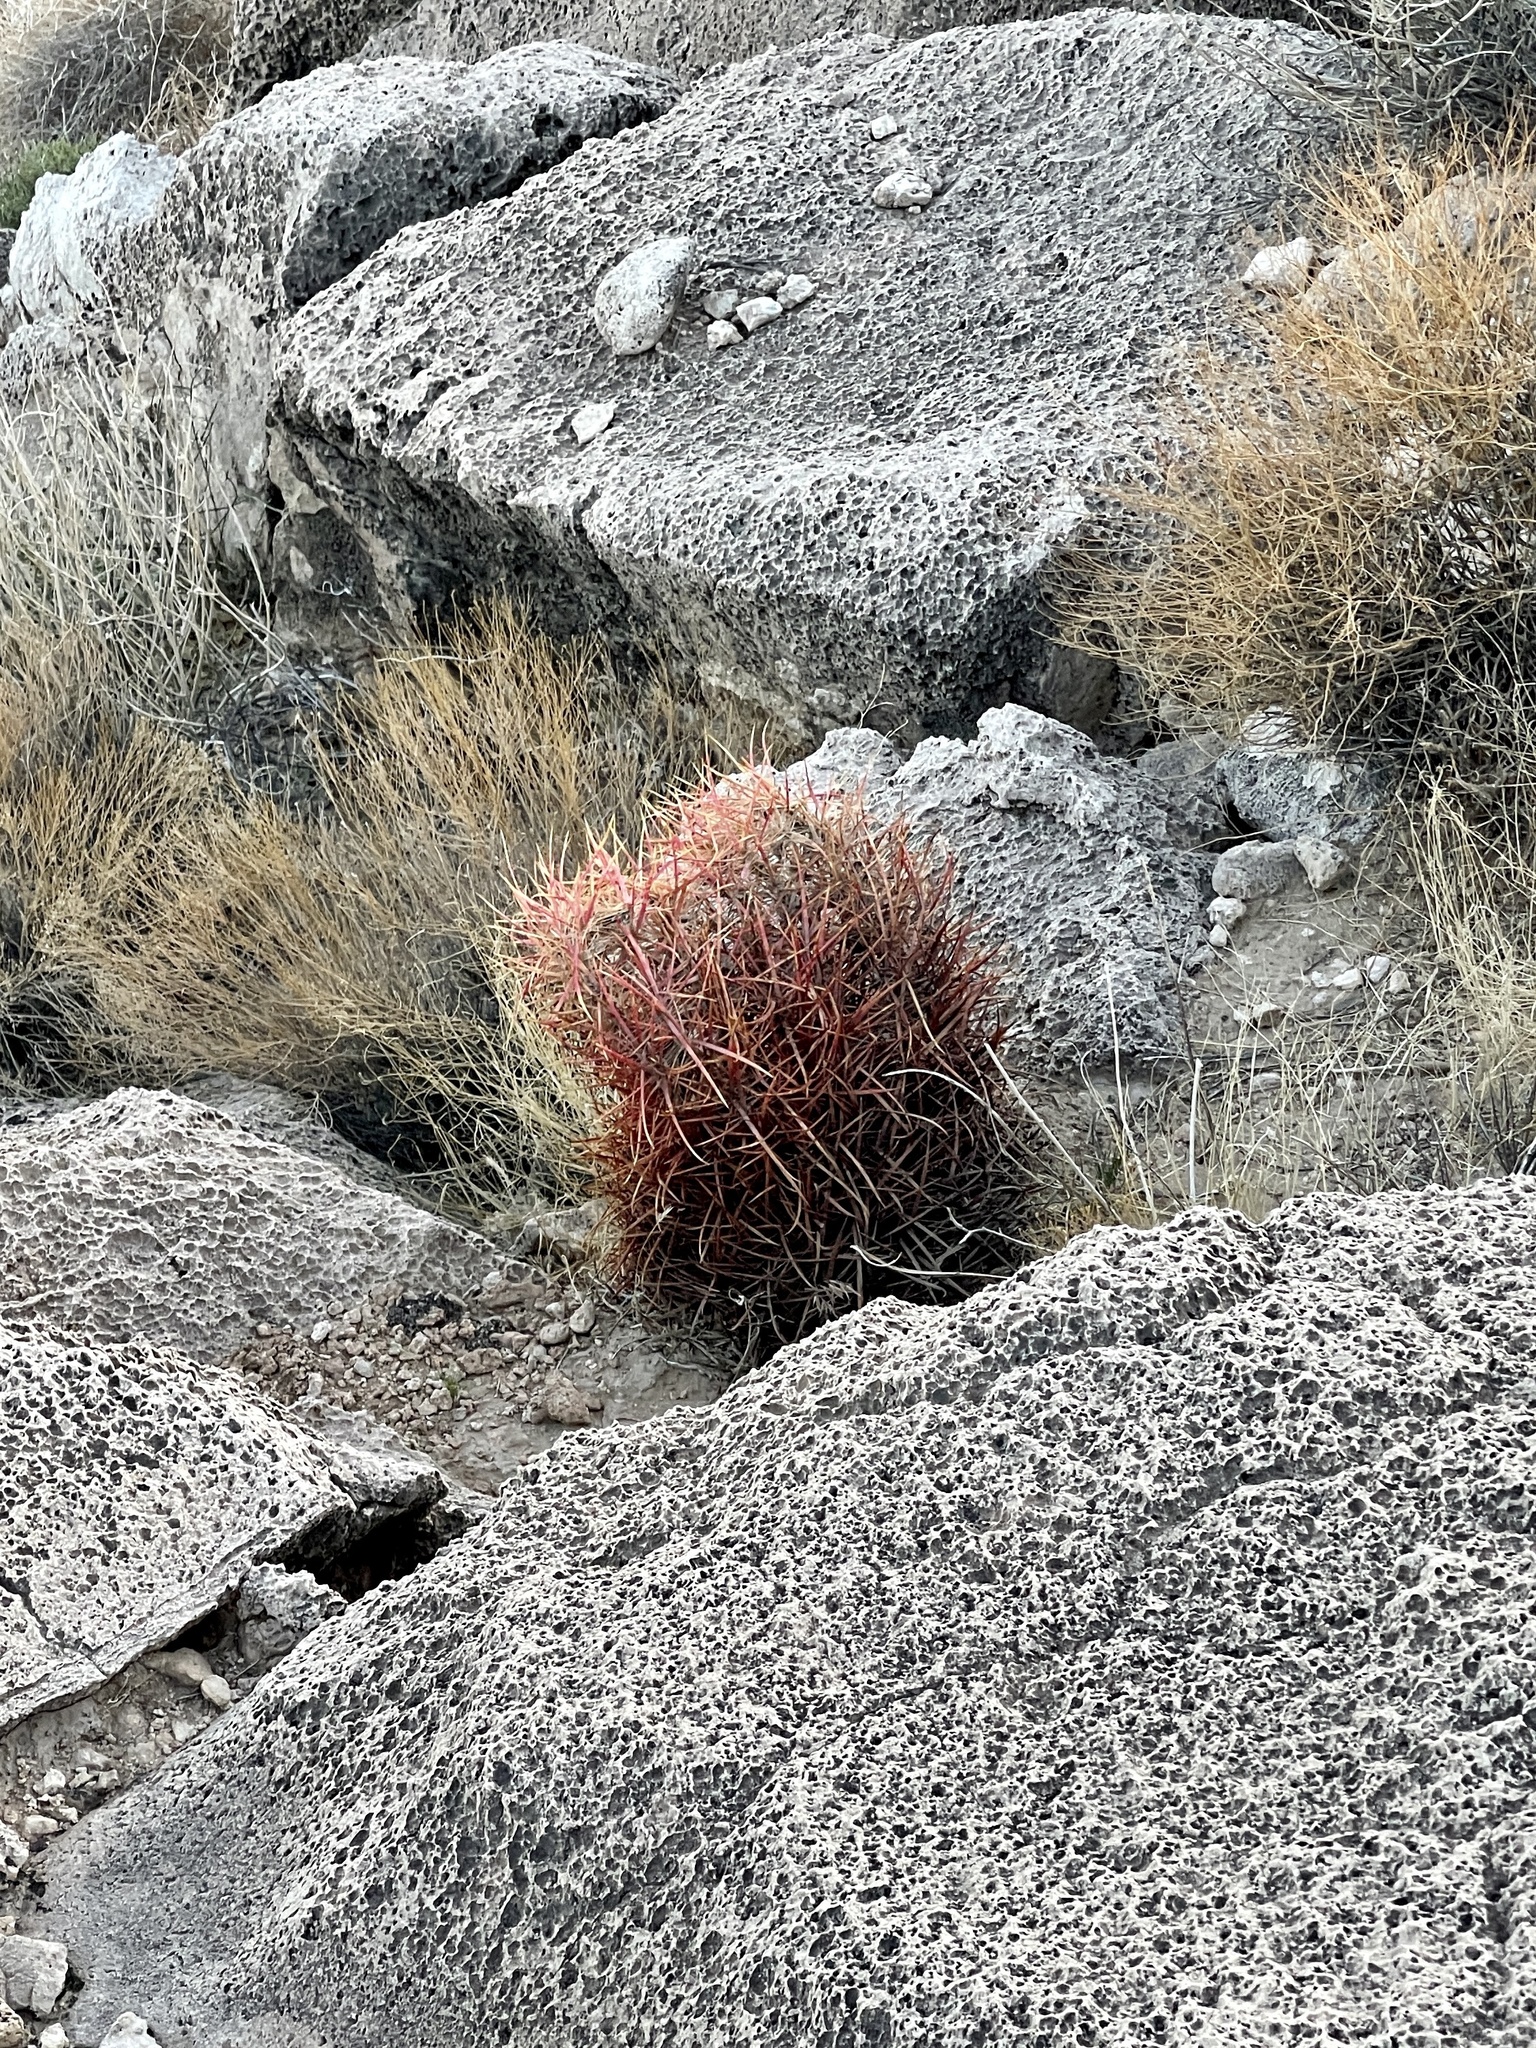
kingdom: Plantae
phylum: Tracheophyta
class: Magnoliopsida
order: Caryophyllales
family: Cactaceae
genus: Ferocactus
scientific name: Ferocactus cylindraceus
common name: California barrel cactus
